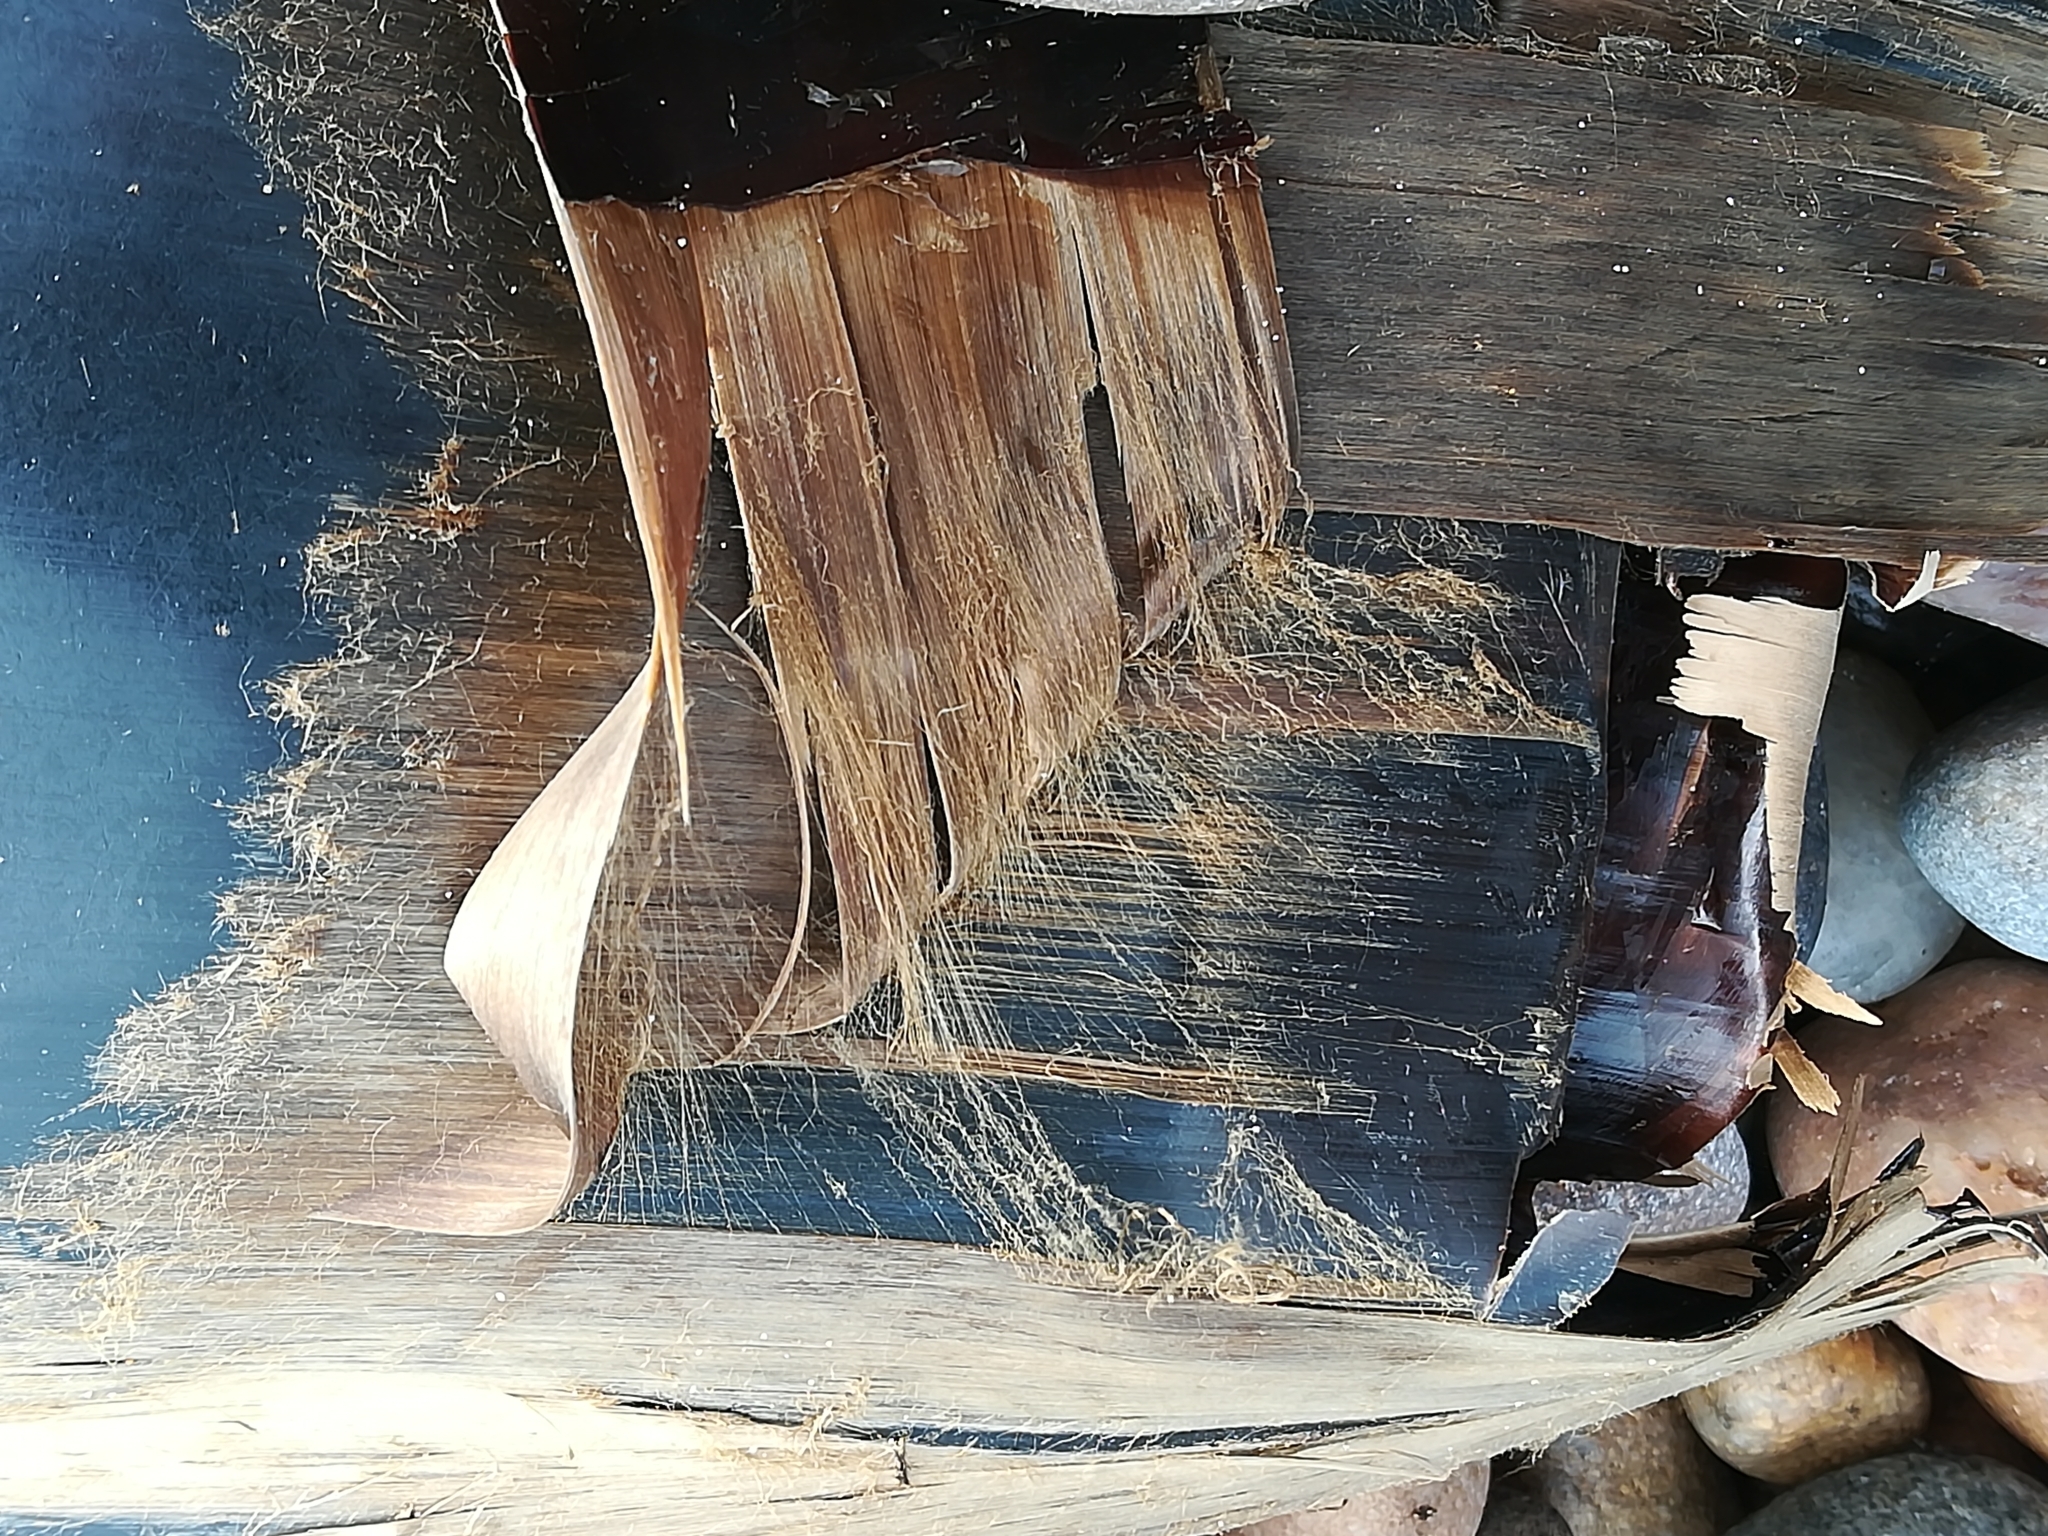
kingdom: Animalia
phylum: Chordata
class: Elasmobranchii
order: Rajiformes
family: Rajidae
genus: Dipturus
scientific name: Dipturus batis
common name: Blue skate
